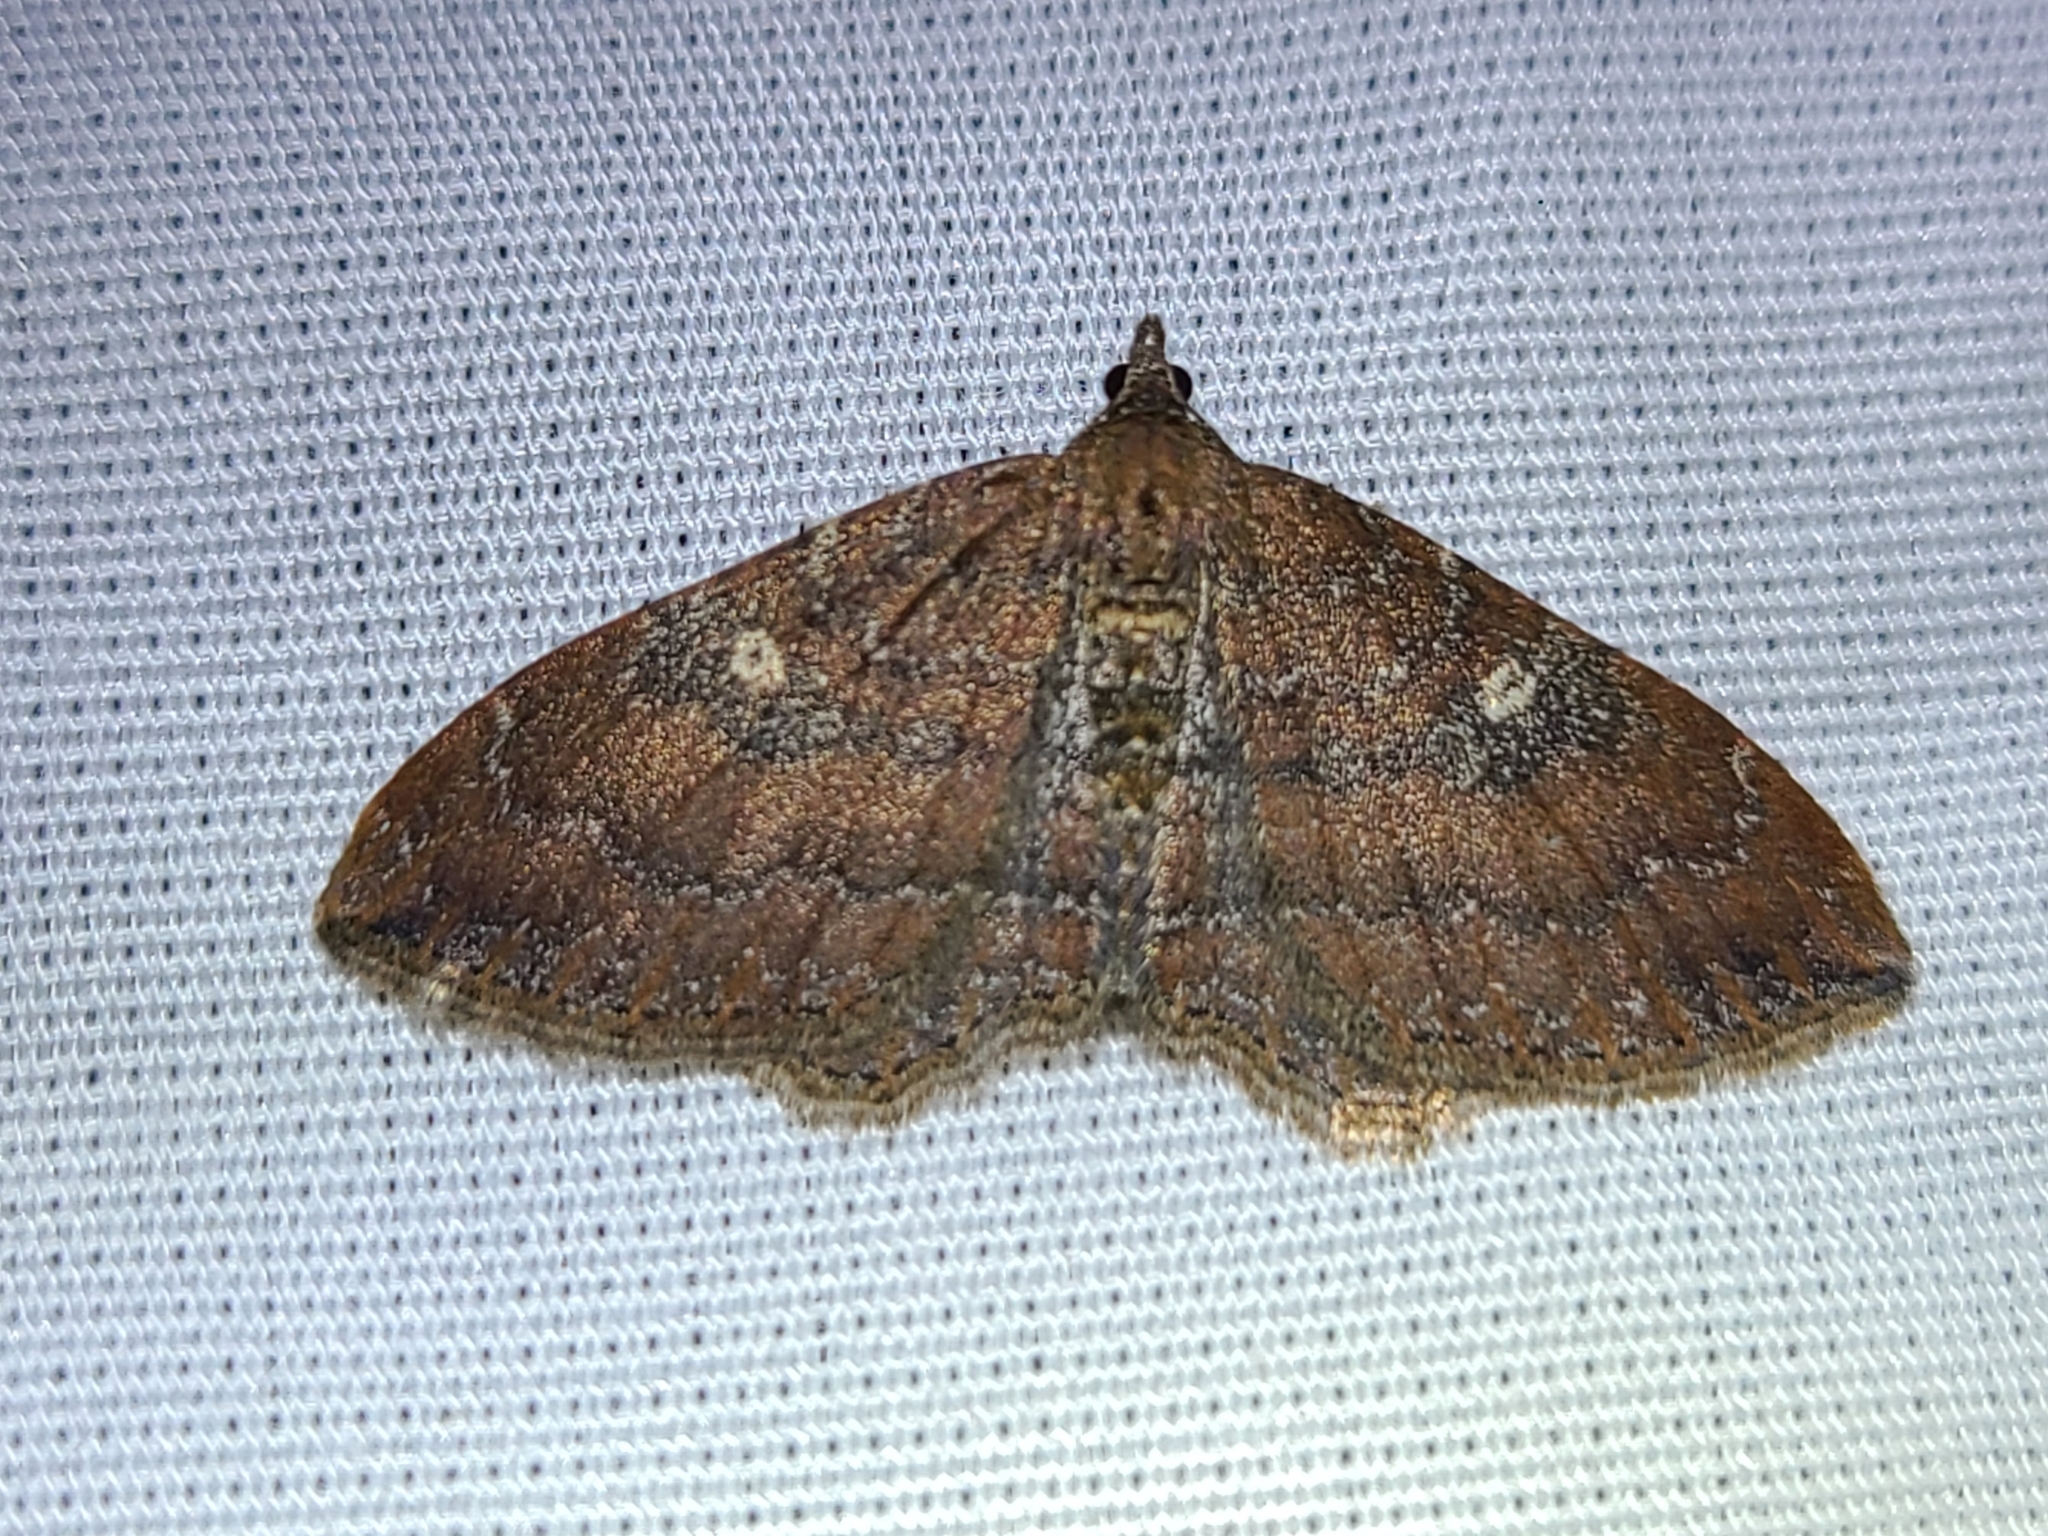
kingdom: Animalia
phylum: Arthropoda
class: Insecta
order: Lepidoptera
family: Geometridae
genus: Orthonama
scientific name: Orthonama obstipata
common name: The gem
